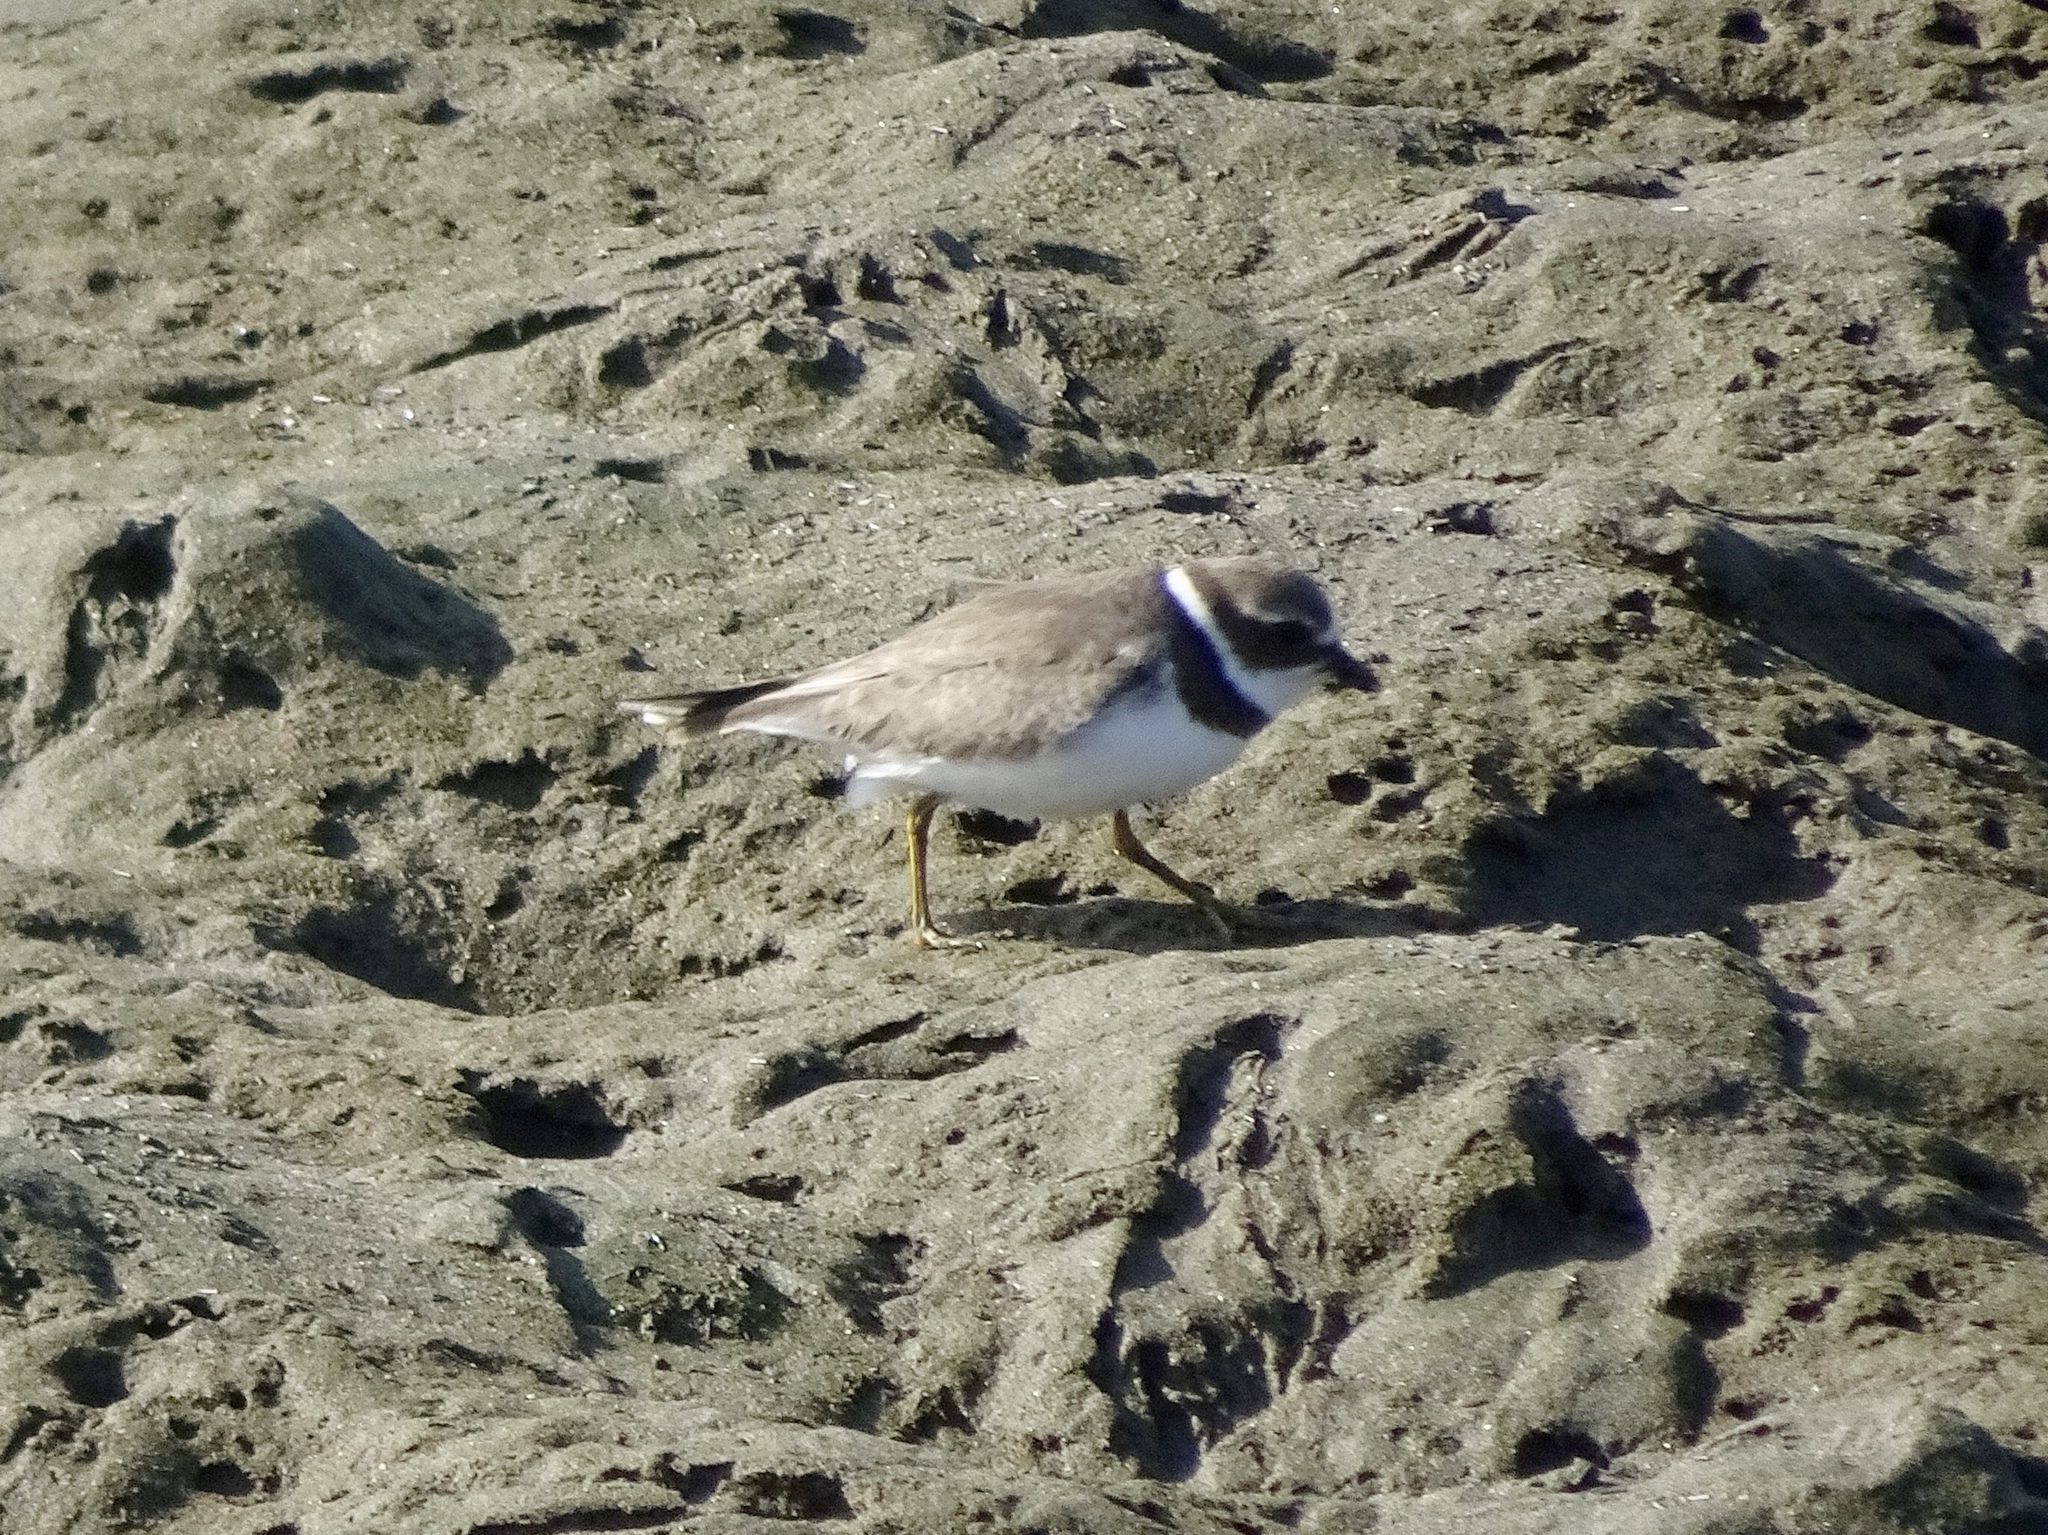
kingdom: Animalia
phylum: Chordata
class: Aves
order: Charadriiformes
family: Charadriidae
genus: Charadrius
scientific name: Charadrius semipalmatus
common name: Semipalmated plover
